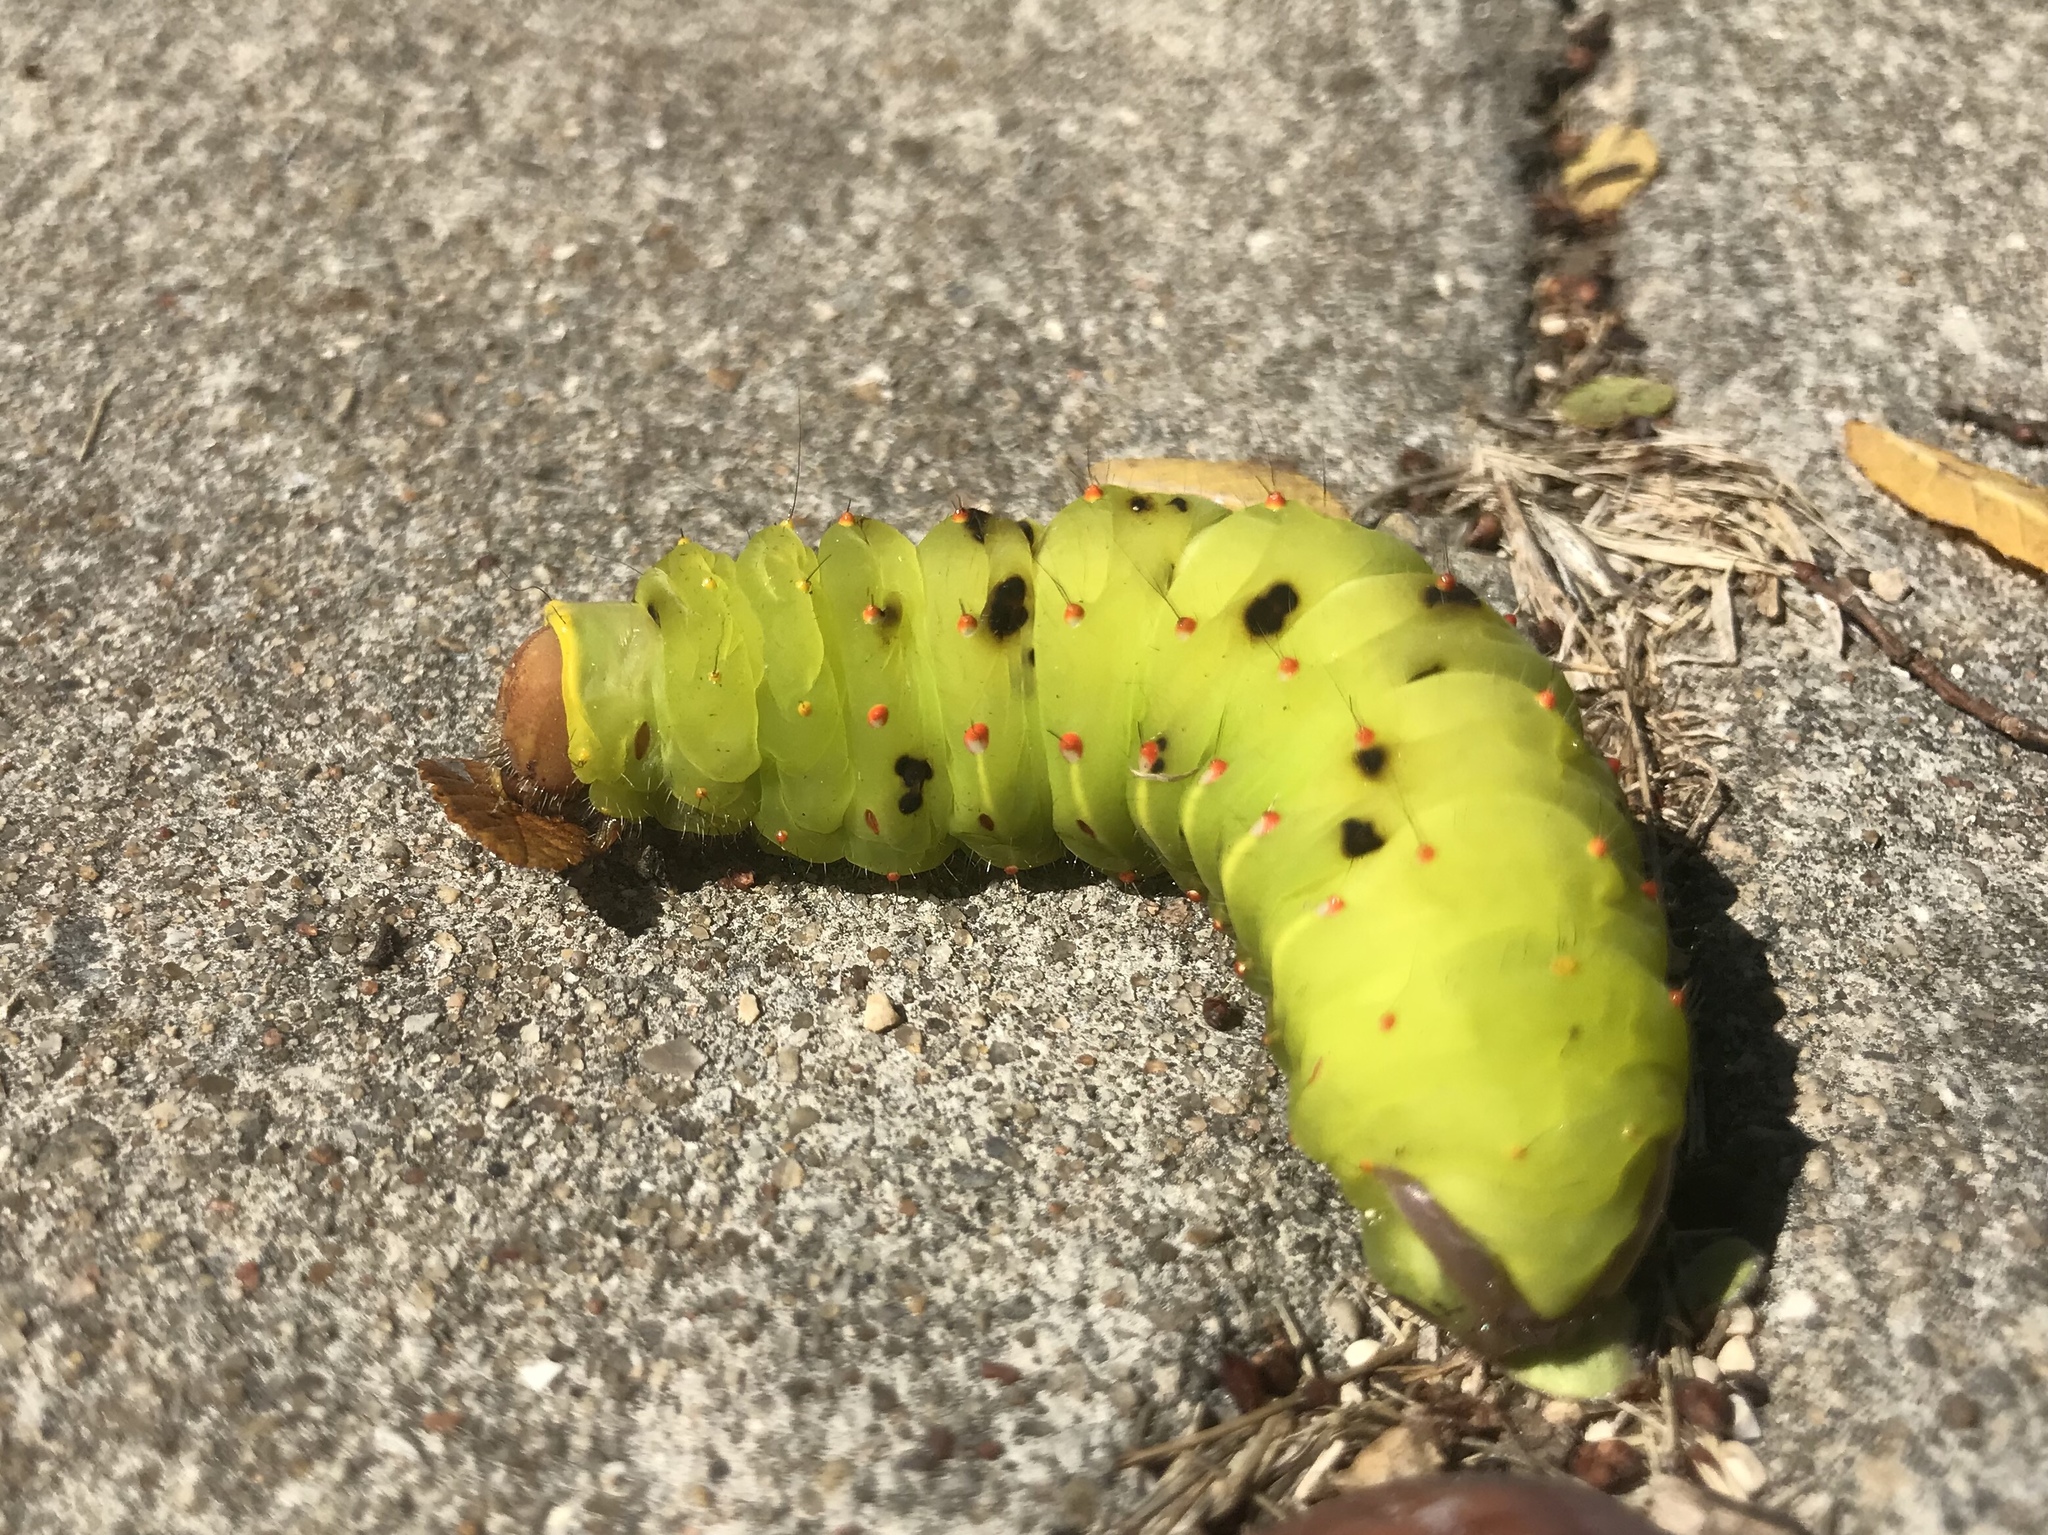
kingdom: Animalia
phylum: Arthropoda
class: Insecta
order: Lepidoptera
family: Saturniidae
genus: Antheraea
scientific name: Antheraea polyphemus
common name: Polyphemus moth
